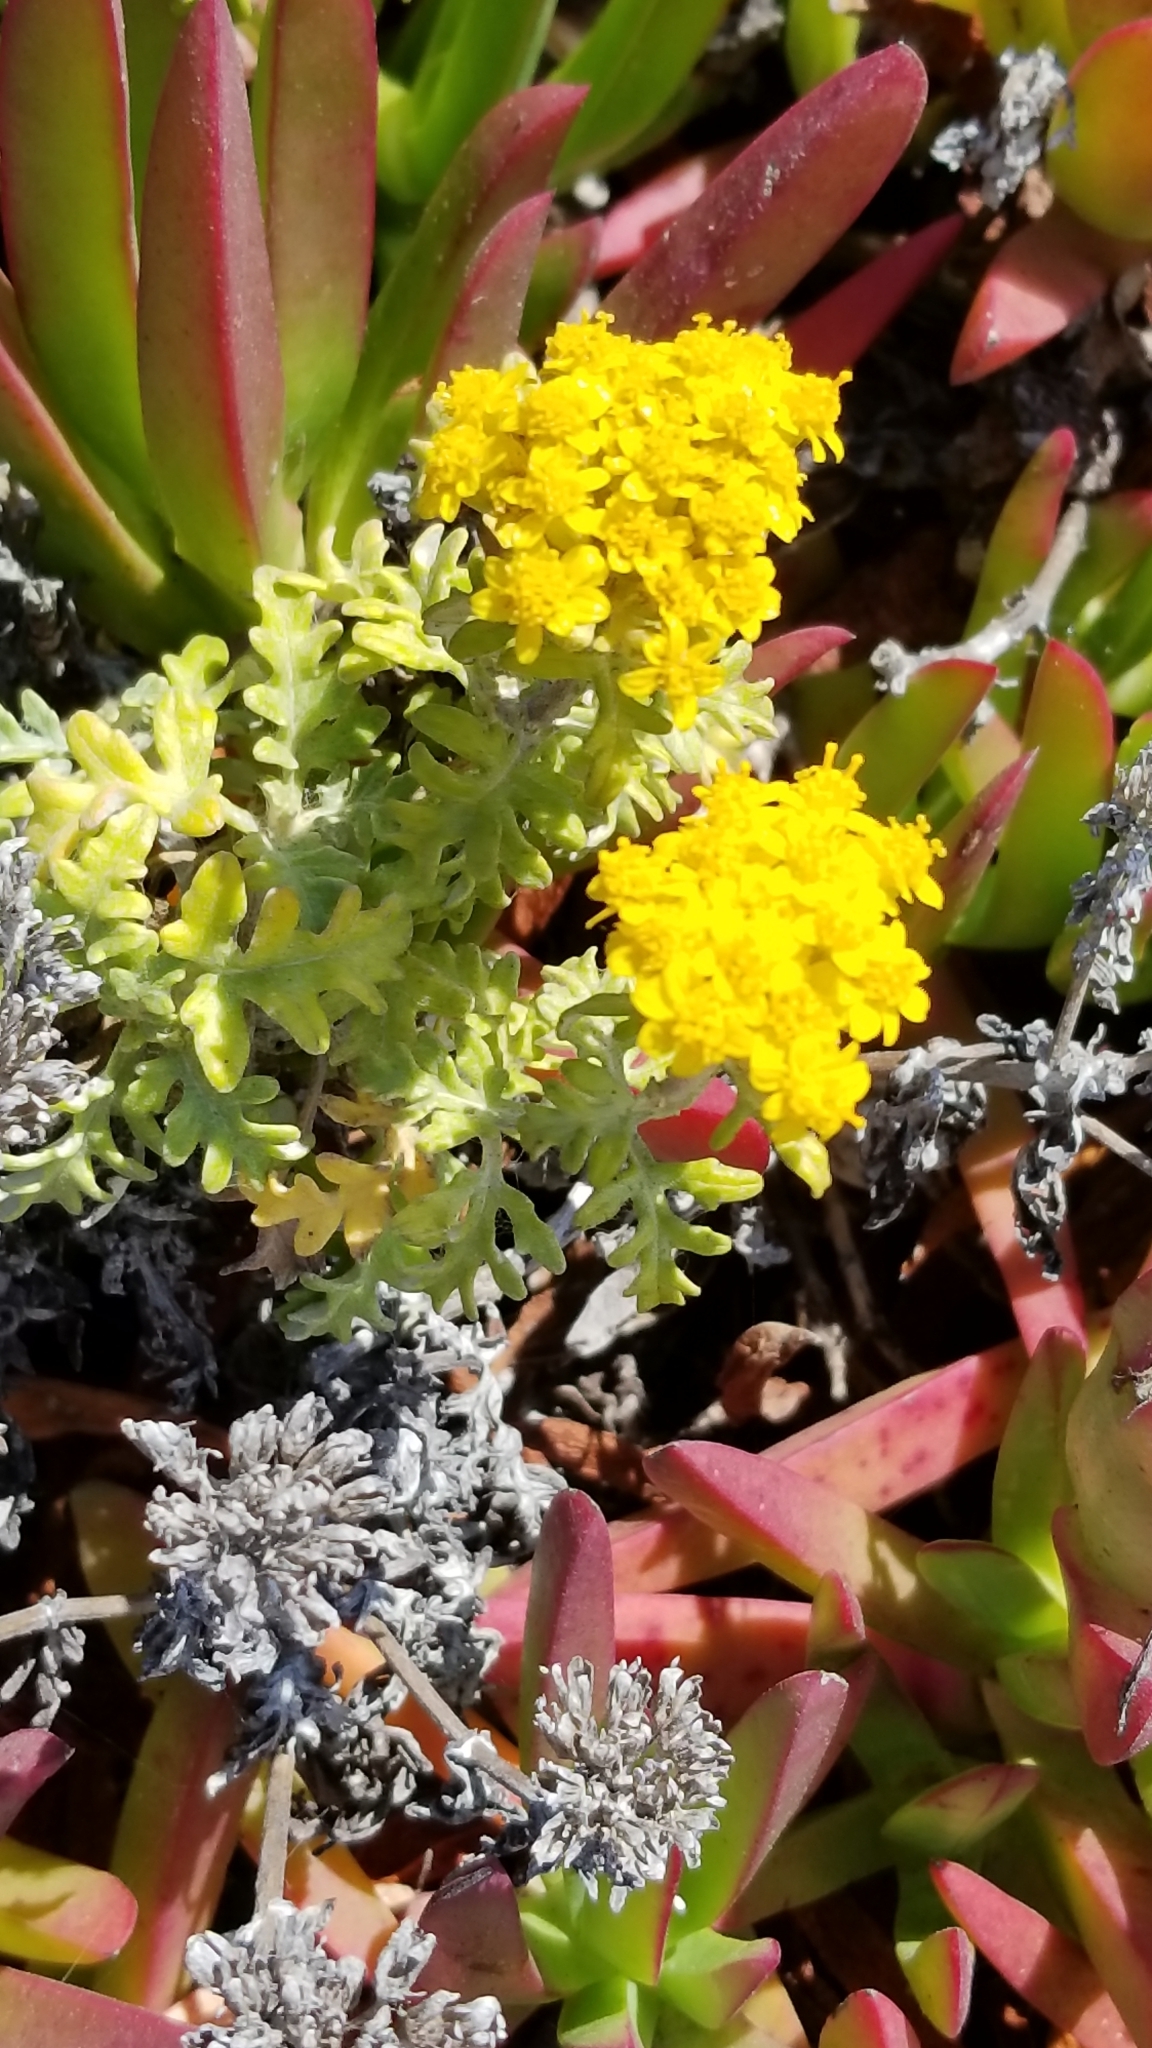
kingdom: Plantae
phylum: Tracheophyta
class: Magnoliopsida
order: Asterales
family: Asteraceae
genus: Eriophyllum
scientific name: Eriophyllum staechadifolium
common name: Lizardtail
